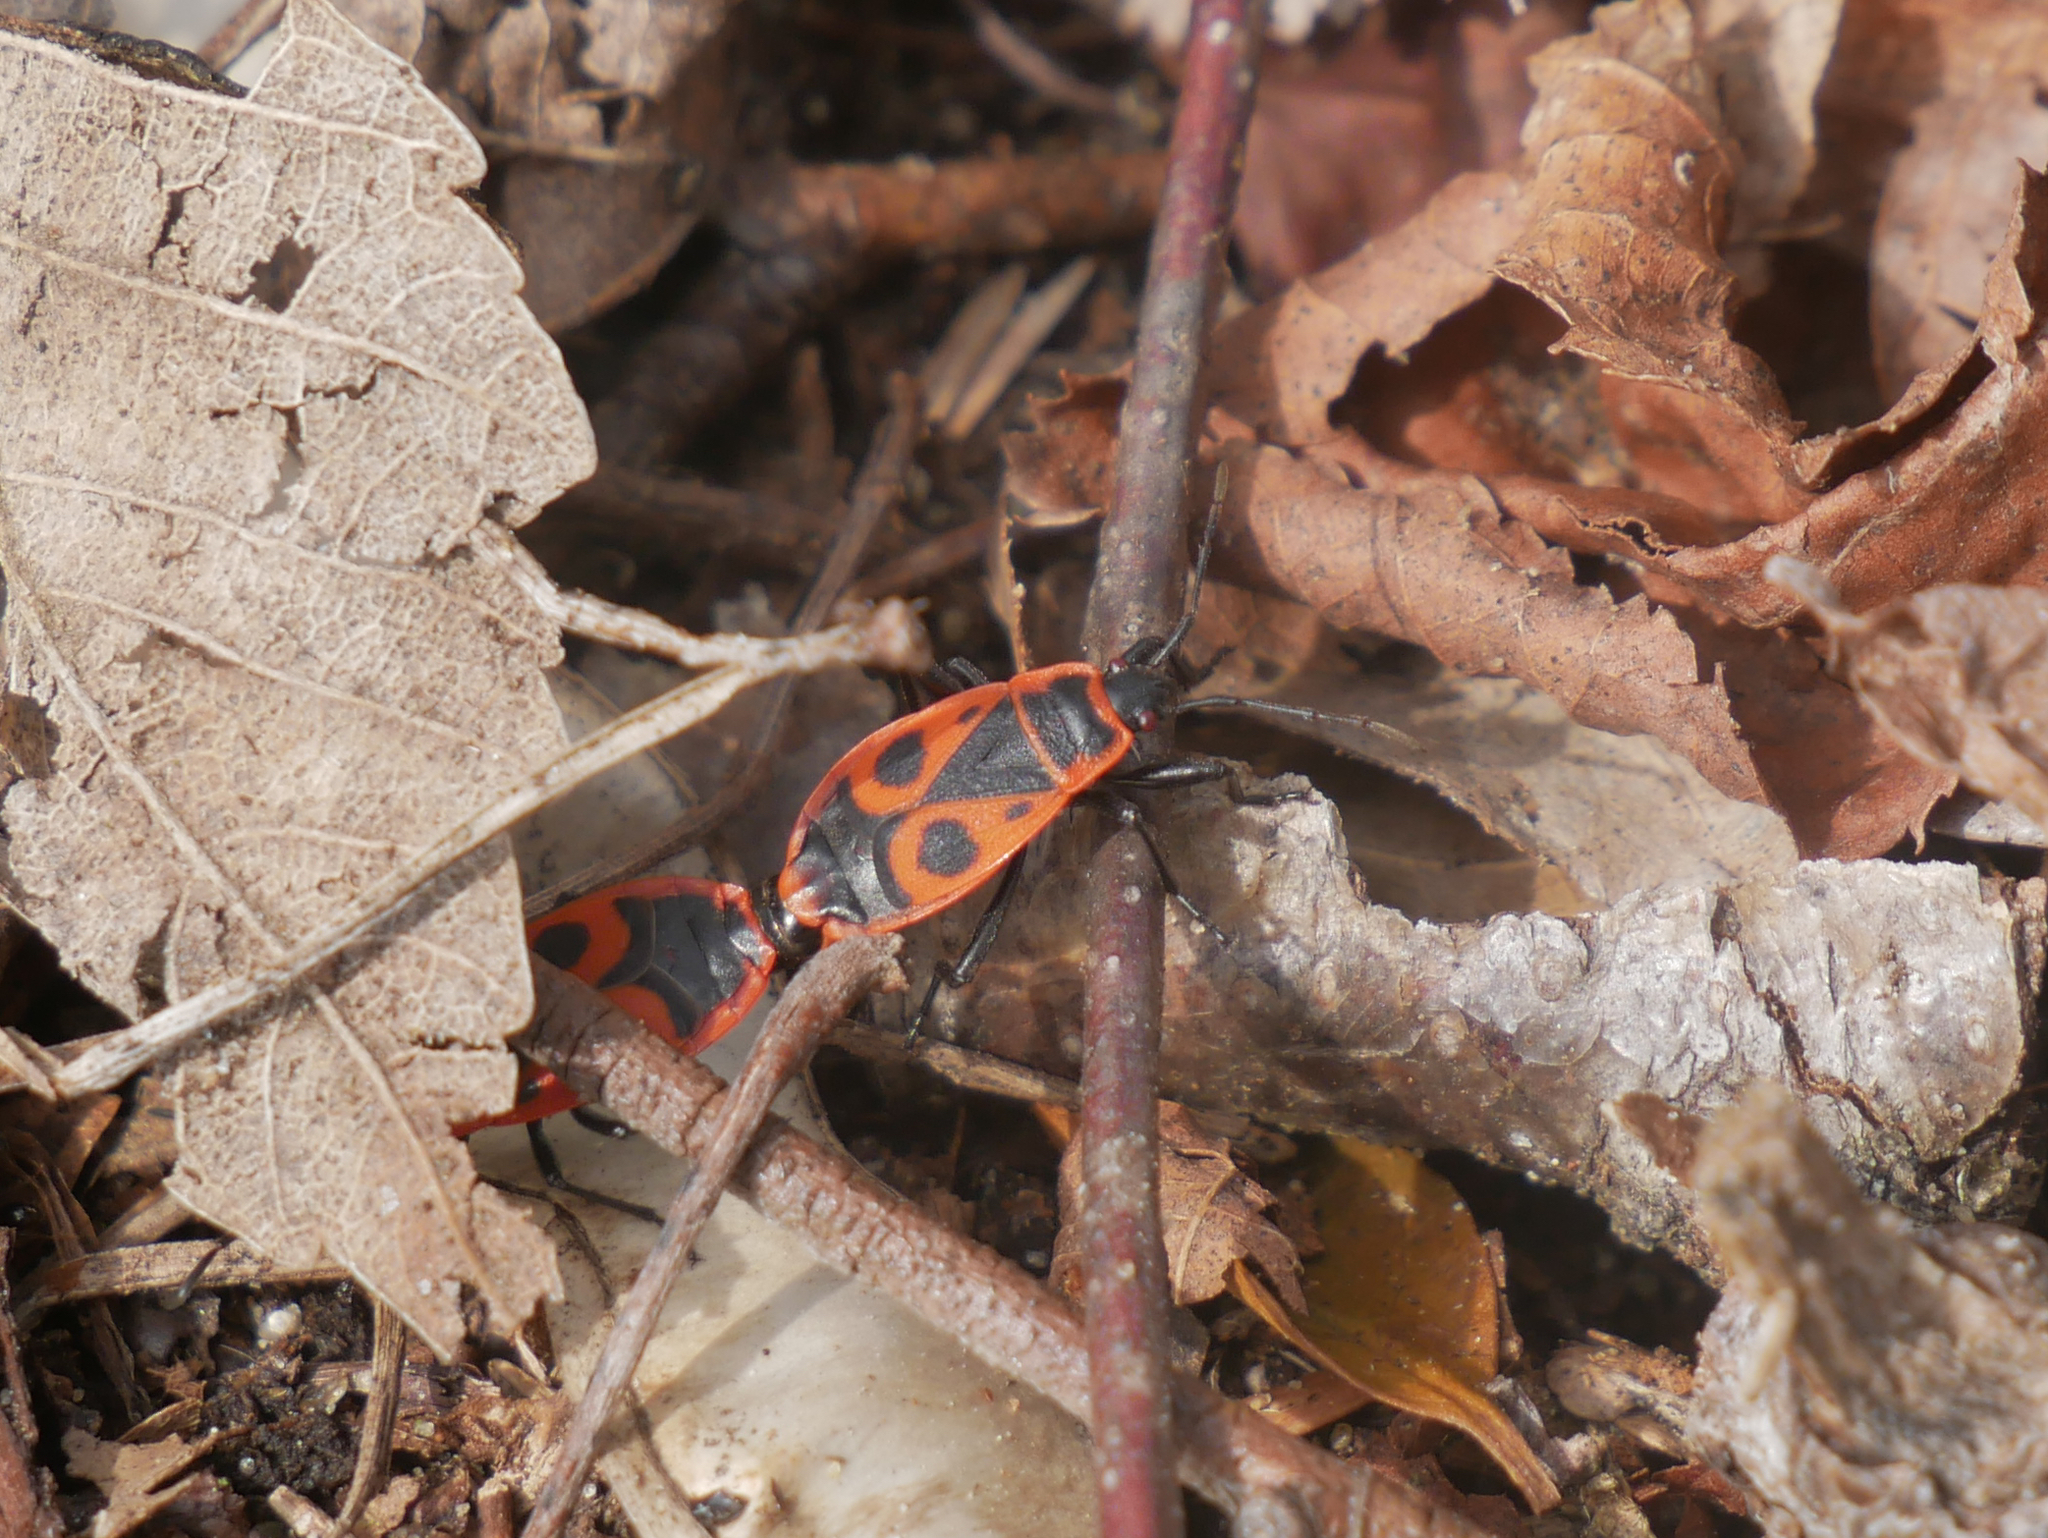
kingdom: Animalia
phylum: Arthropoda
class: Insecta
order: Hemiptera
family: Pyrrhocoridae
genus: Pyrrhocoris
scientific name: Pyrrhocoris apterus
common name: Firebug
